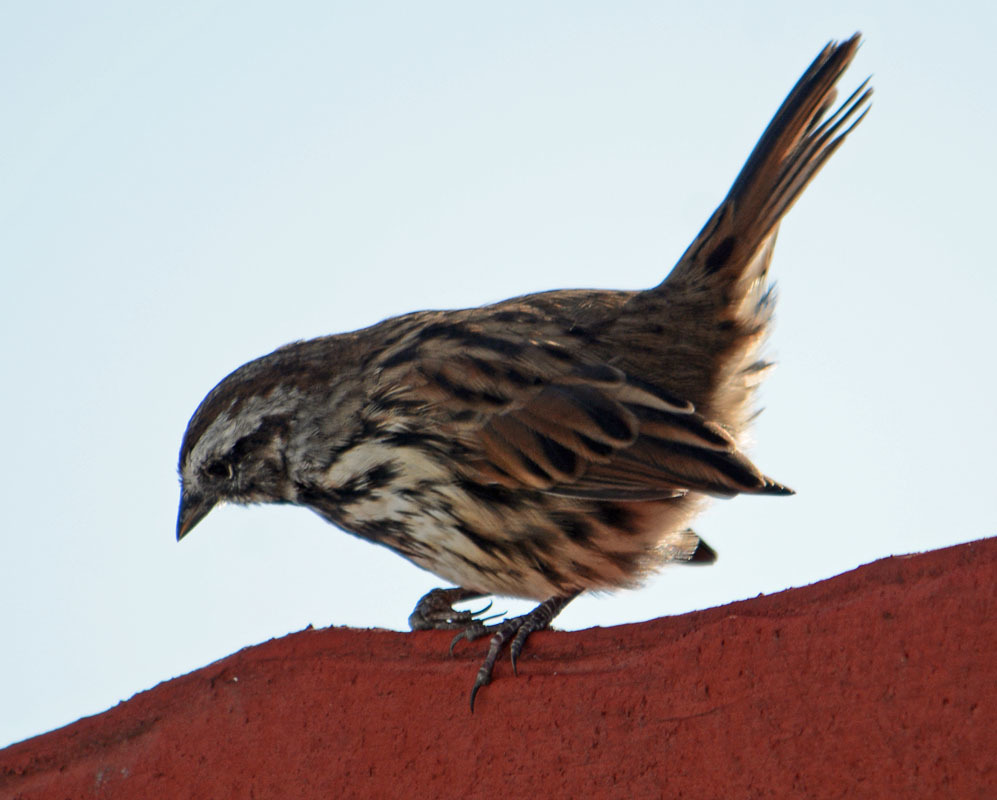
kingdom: Animalia
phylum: Chordata
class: Aves
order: Passeriformes
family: Passerellidae
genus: Melospiza
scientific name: Melospiza melodia
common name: Song sparrow
